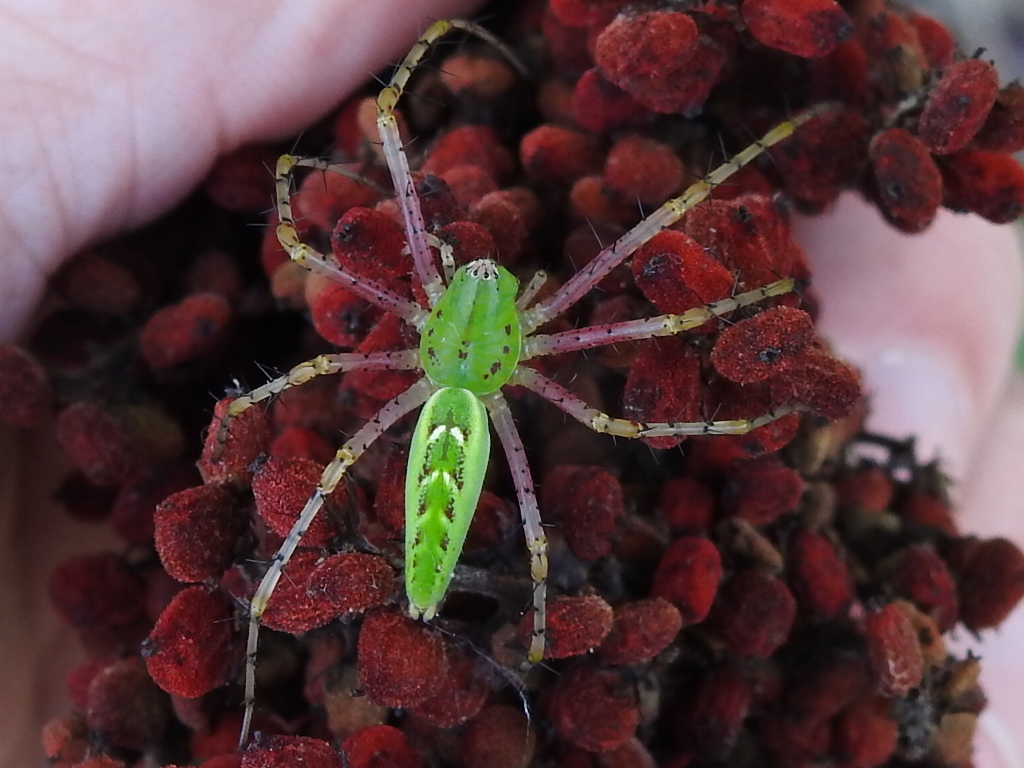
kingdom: Animalia
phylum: Arthropoda
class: Arachnida
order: Araneae
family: Oxyopidae
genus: Peucetia
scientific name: Peucetia viridans
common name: Lynx spiders
